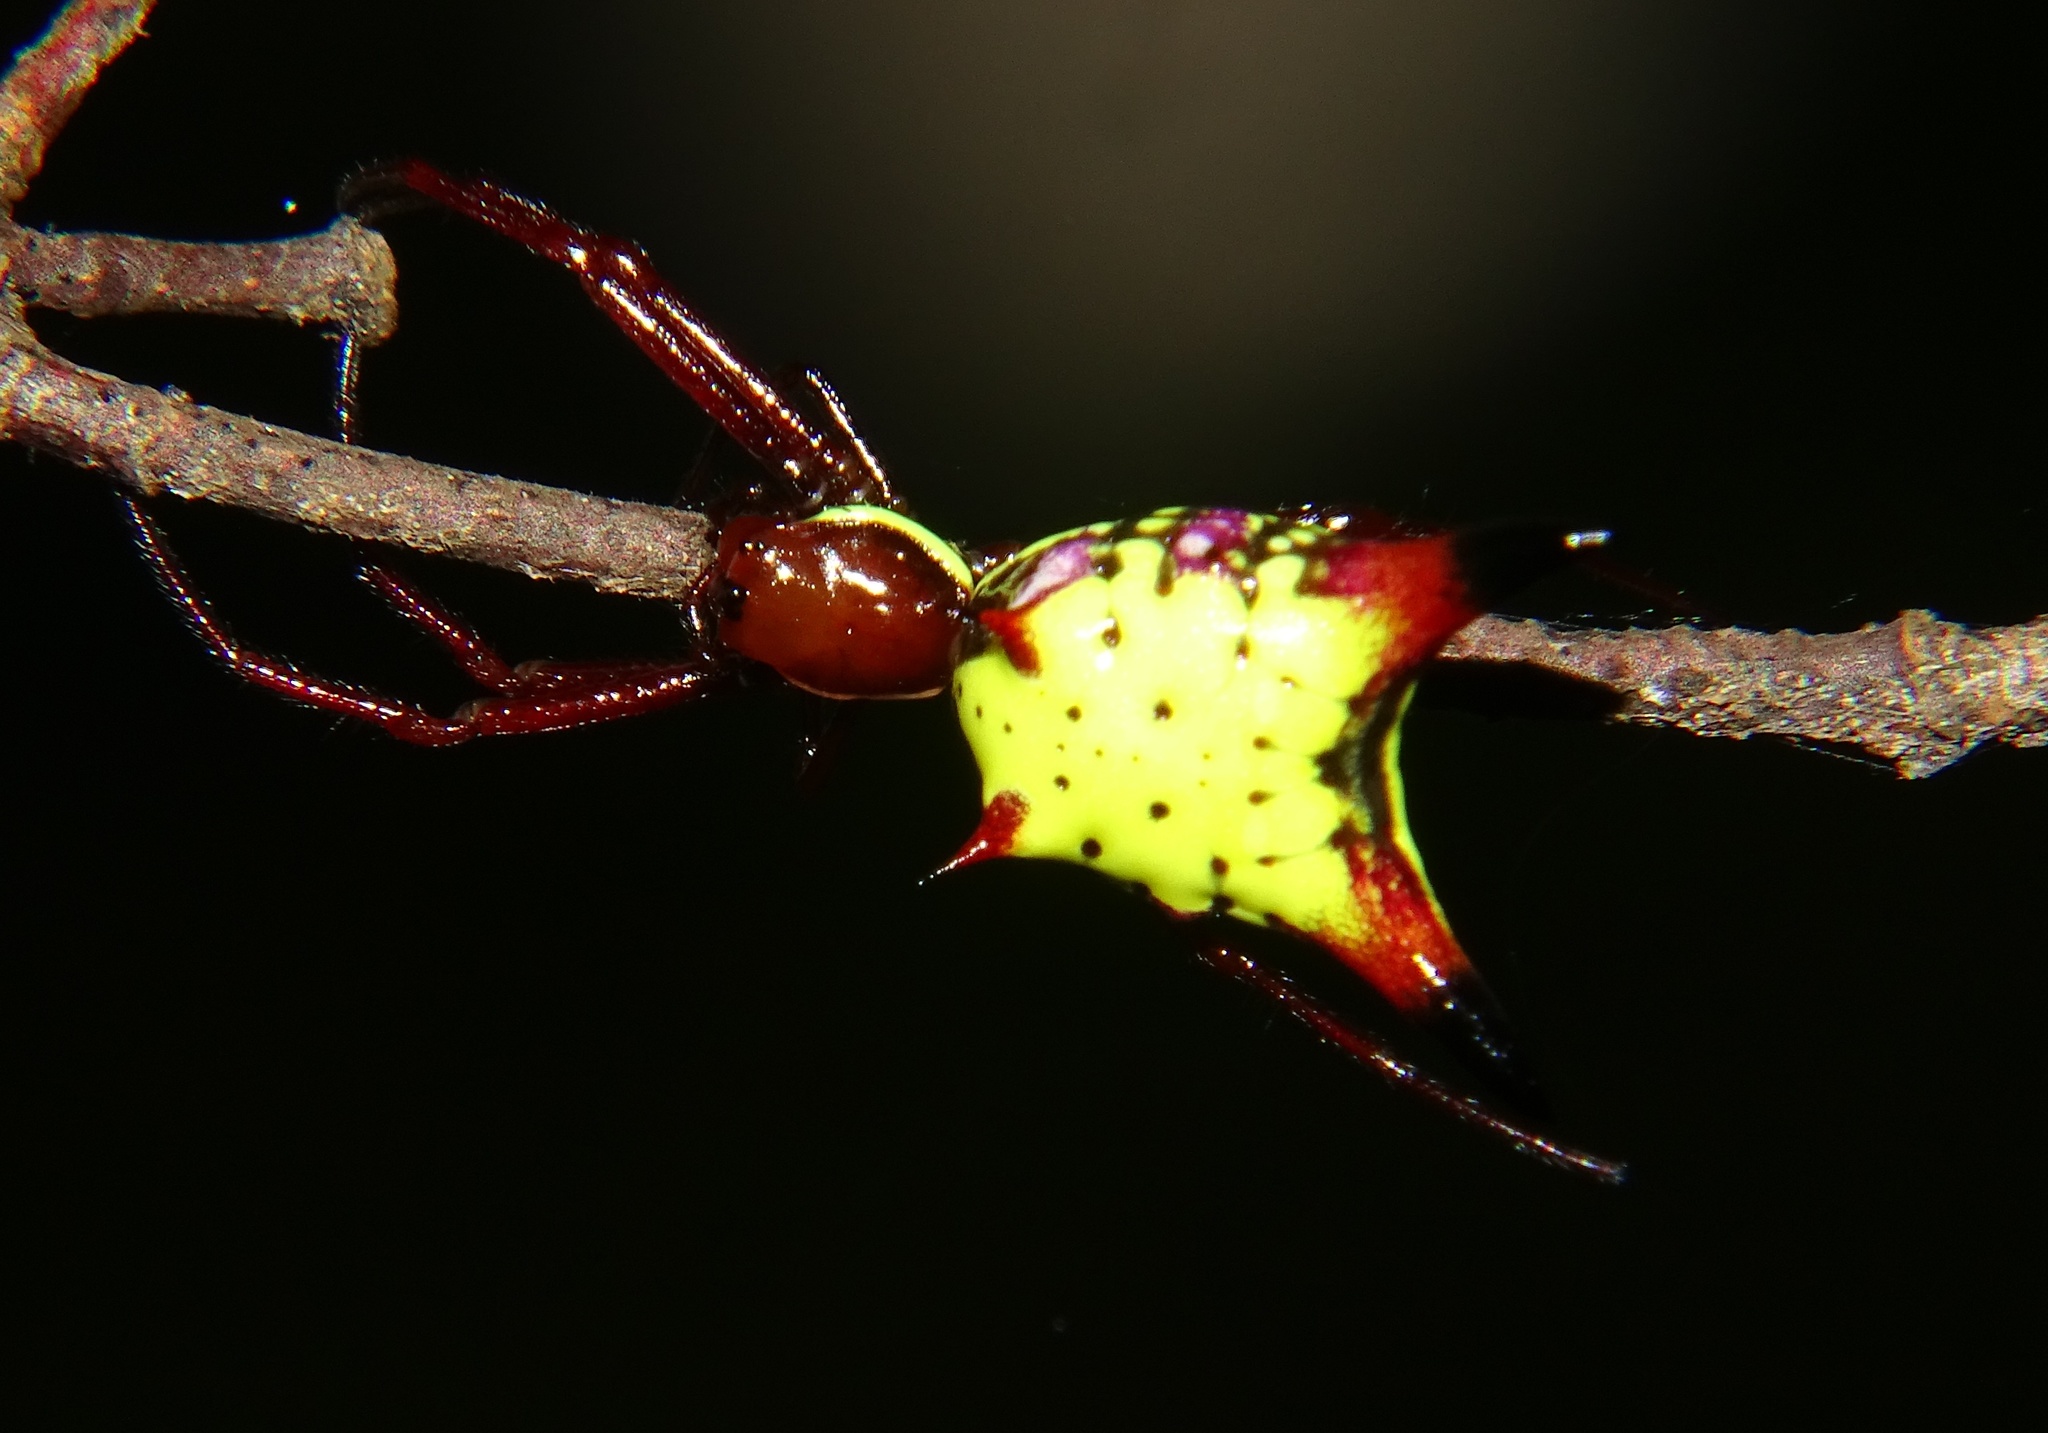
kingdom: Animalia
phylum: Arthropoda
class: Arachnida
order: Araneae
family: Araneidae
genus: Micrathena
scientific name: Micrathena sagittata
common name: Orb weavers
